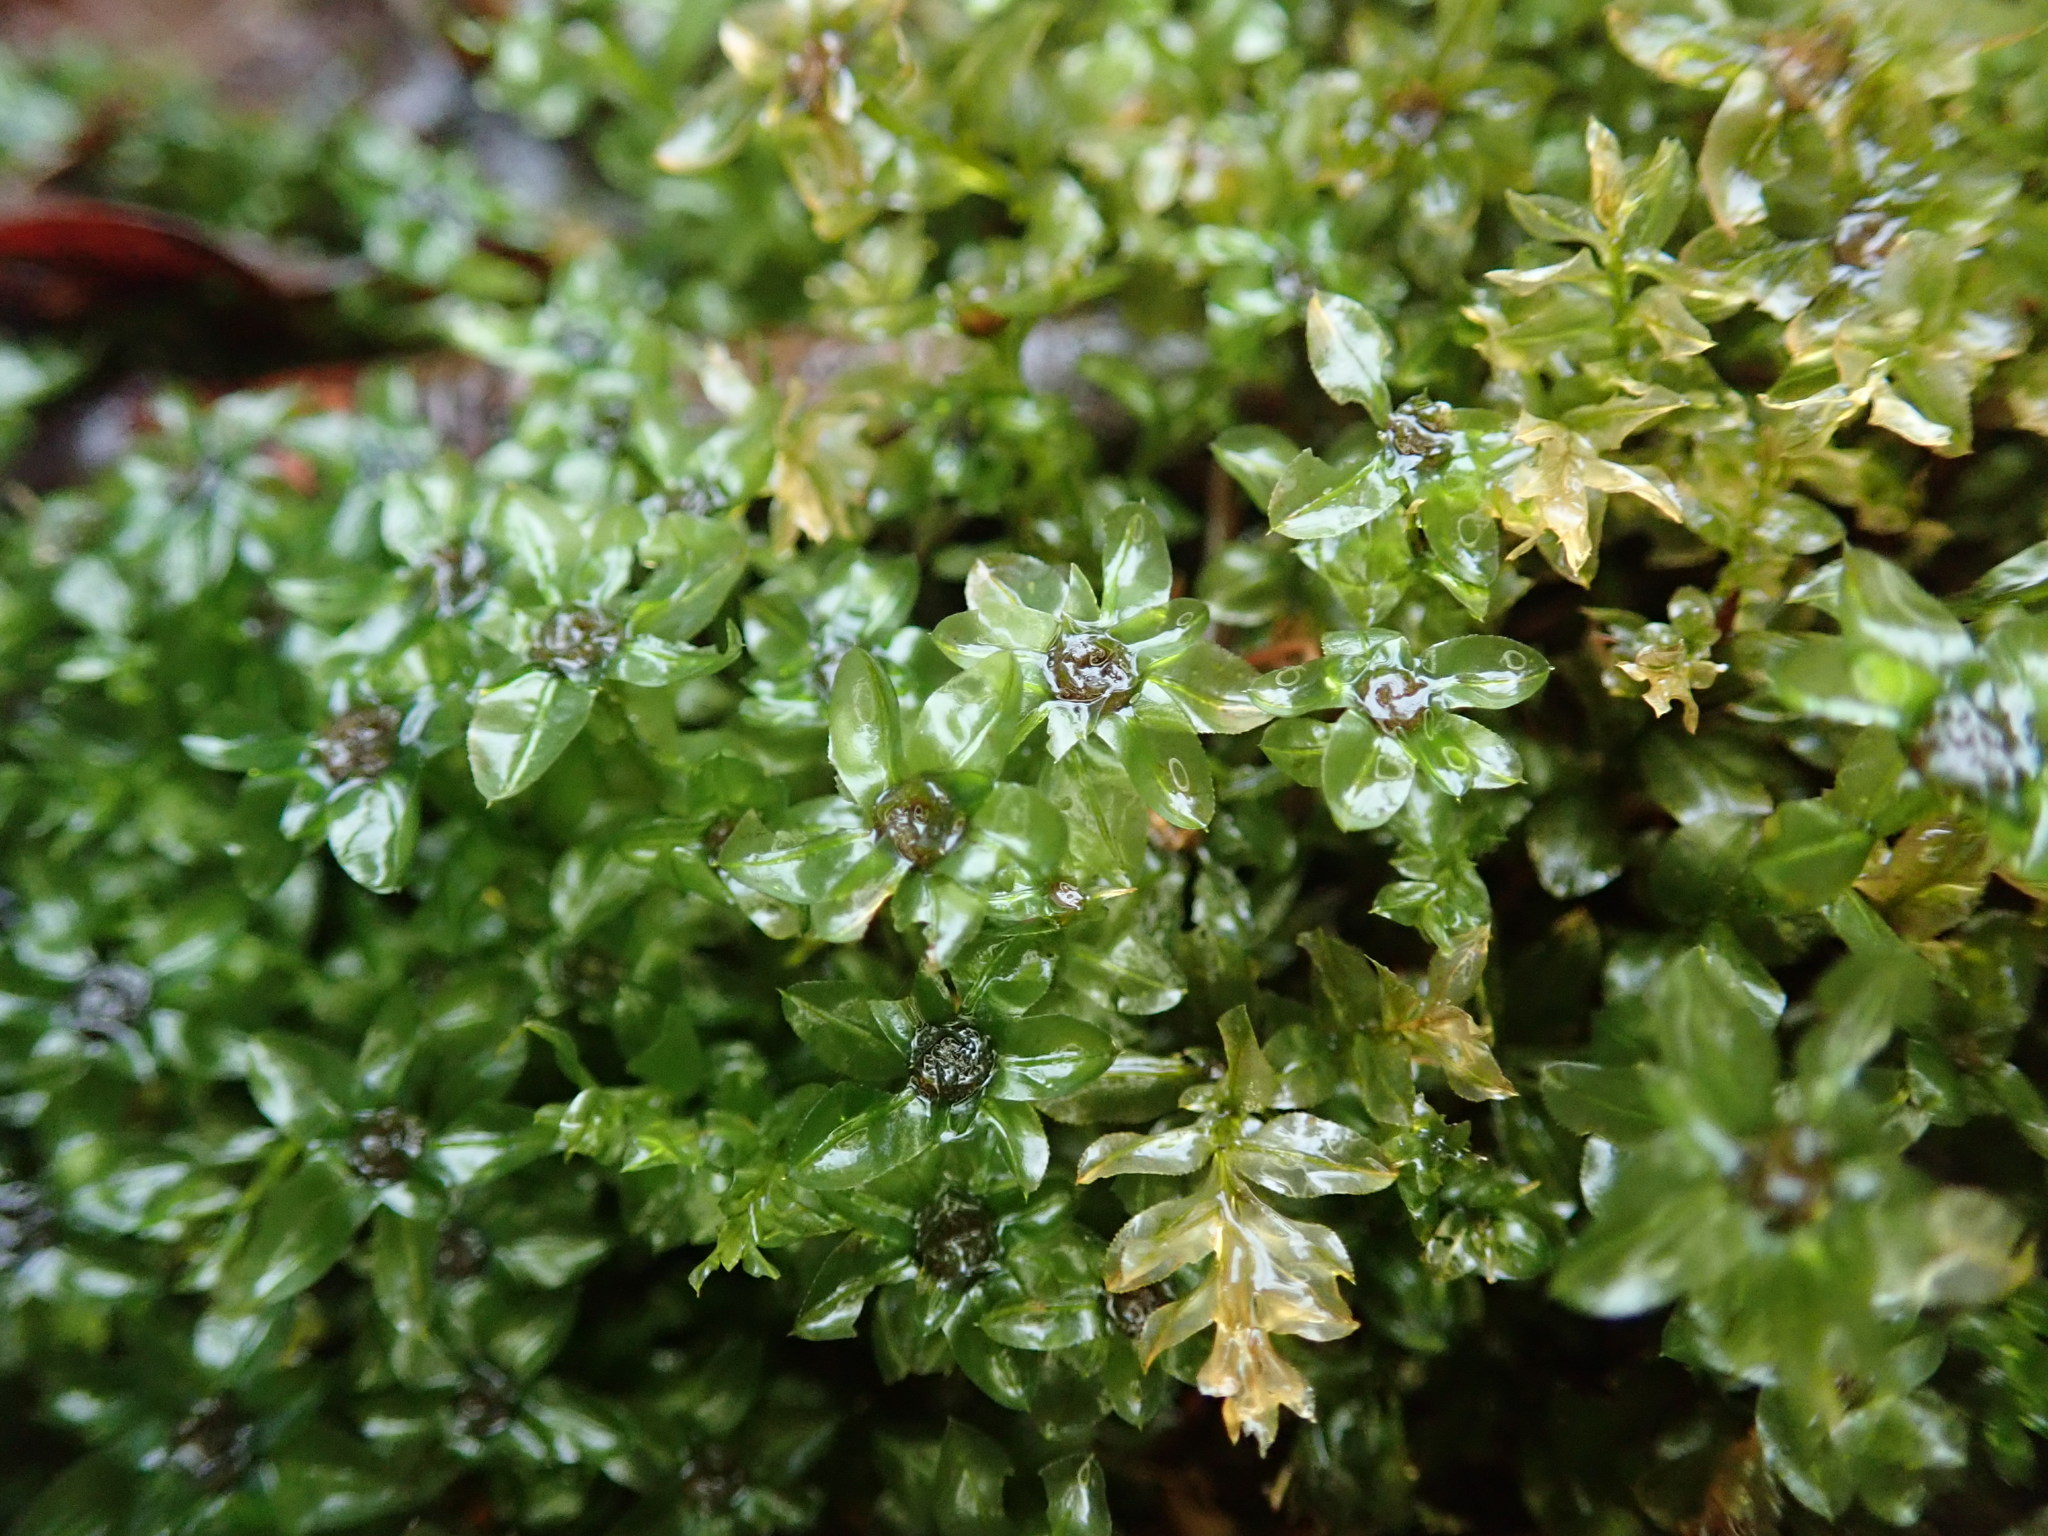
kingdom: Plantae
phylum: Bryophyta
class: Bryopsida
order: Bryales
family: Mniaceae
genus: Plagiomnium
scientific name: Plagiomnium insigne
